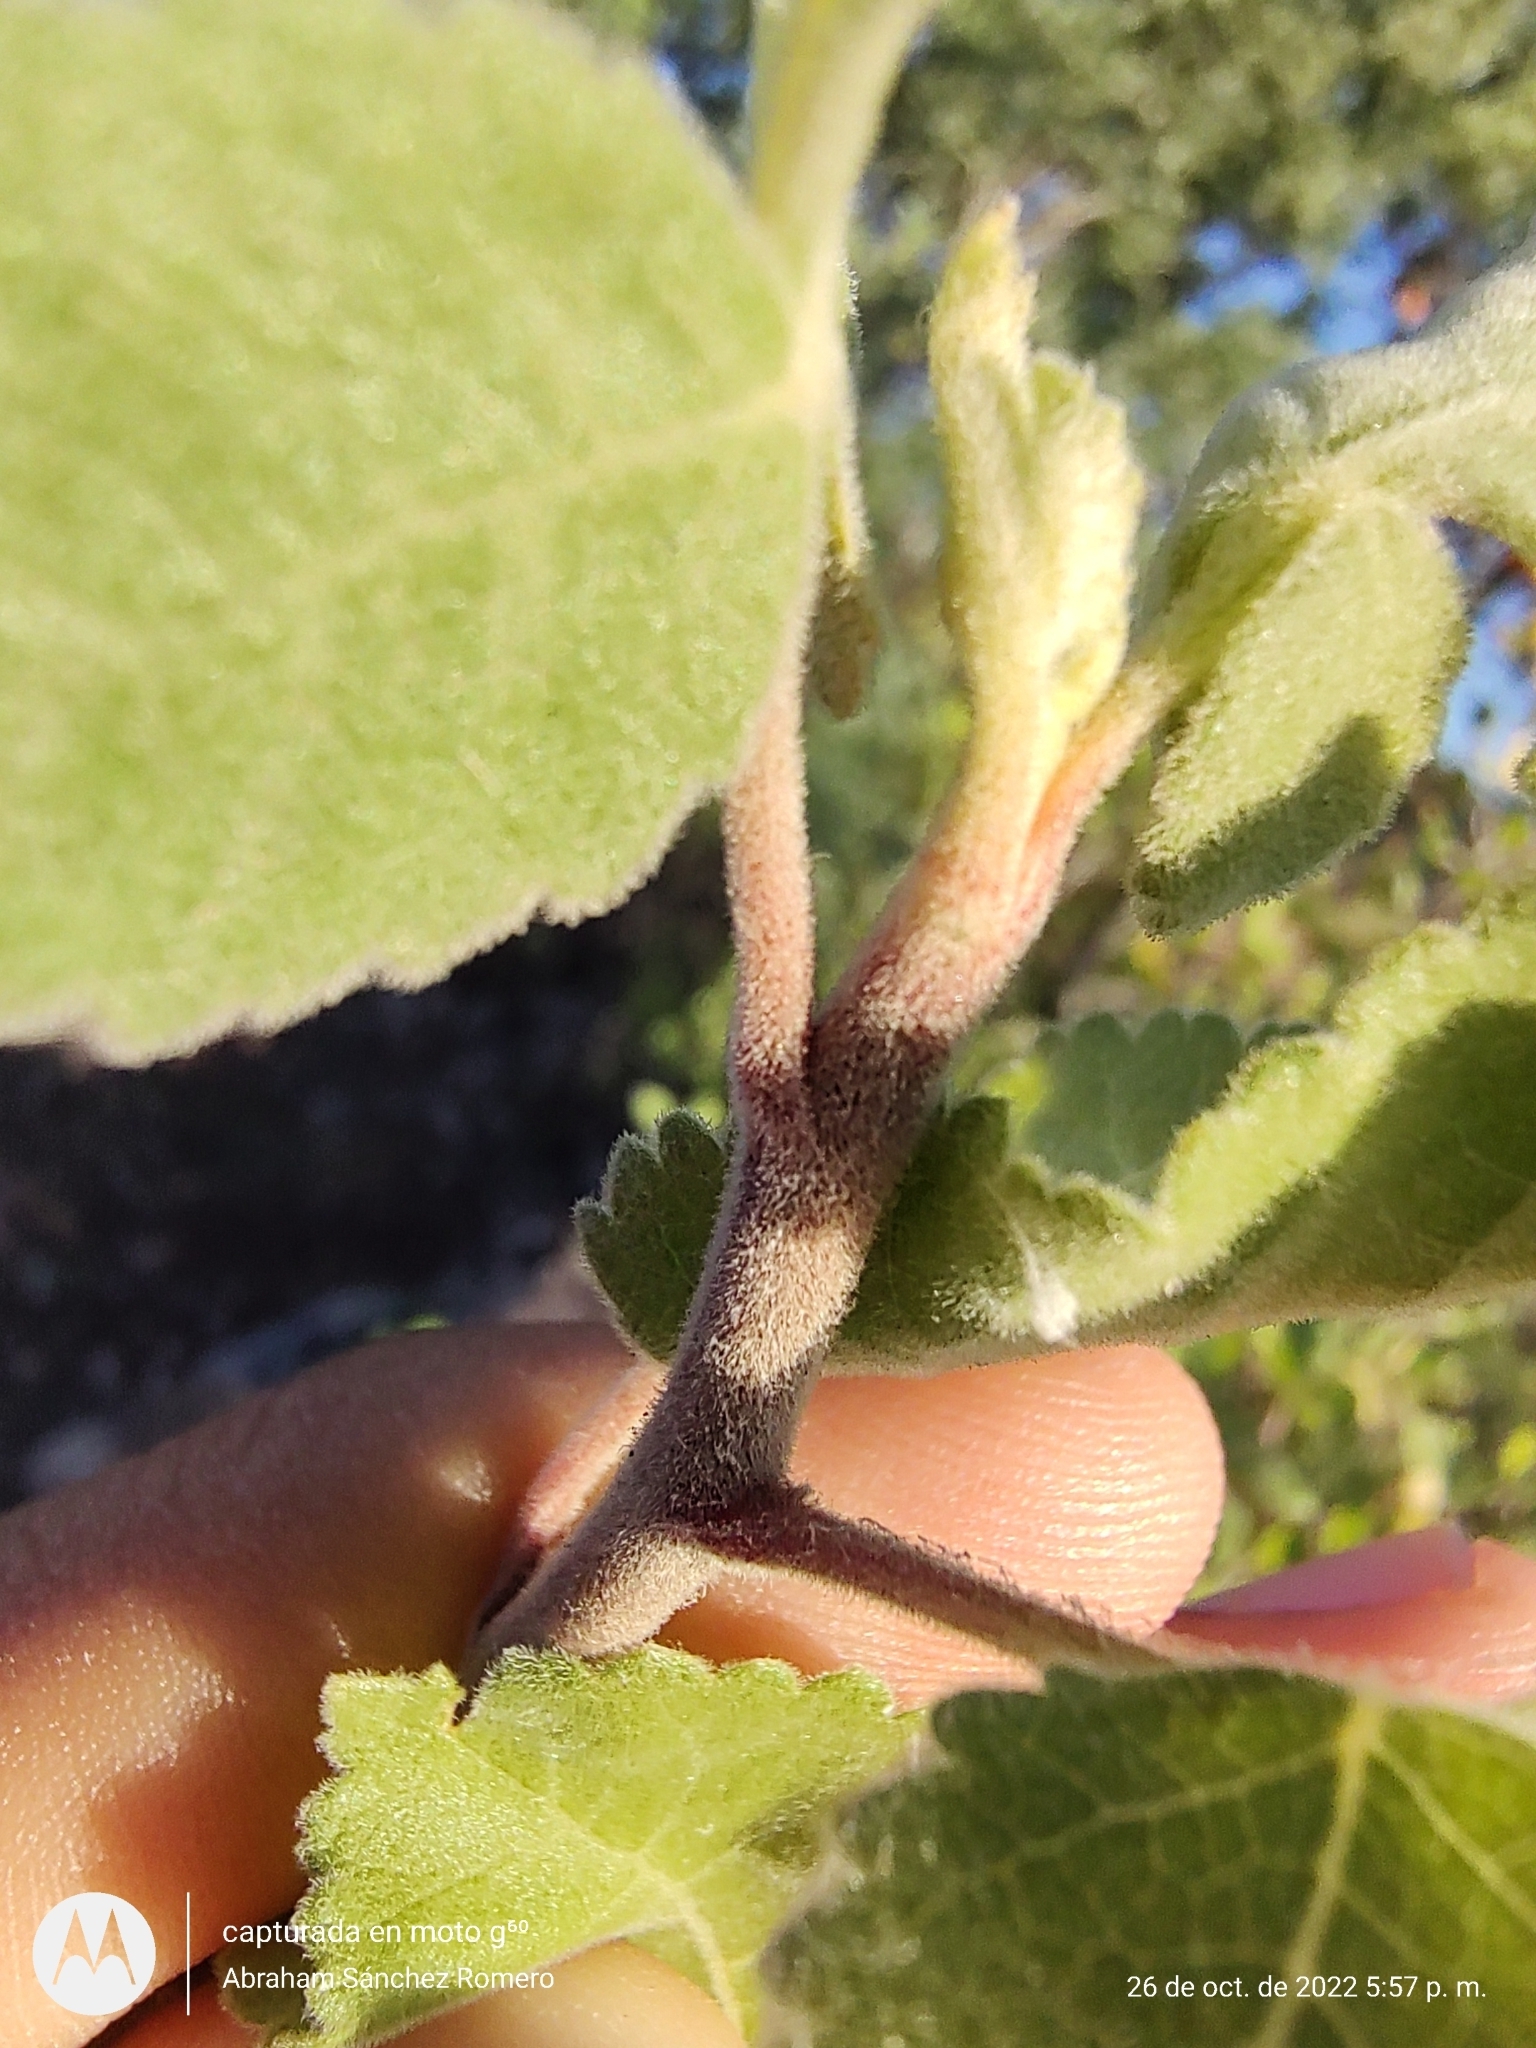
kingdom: Plantae
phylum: Tracheophyta
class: Magnoliopsida
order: Sapindales
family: Burseraceae
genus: Bursera
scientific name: Bursera hindsiana
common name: Red elephant tree
